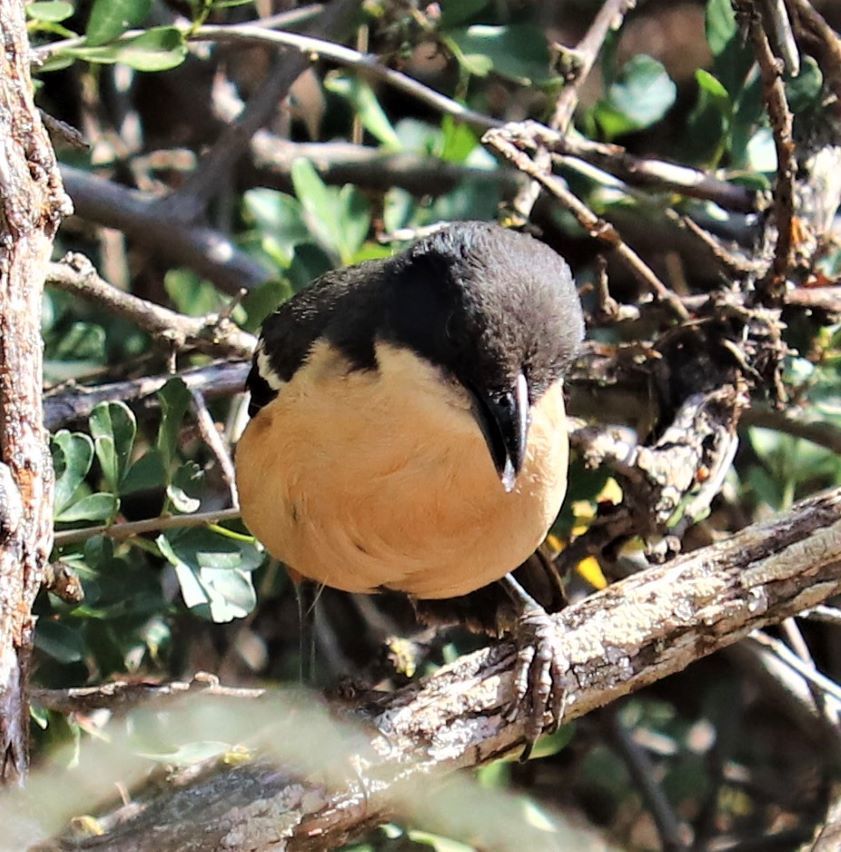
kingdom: Animalia
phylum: Chordata
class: Aves
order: Passeriformes
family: Malaconotidae
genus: Laniarius
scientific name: Laniarius ferrugineus
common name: Southern boubou
